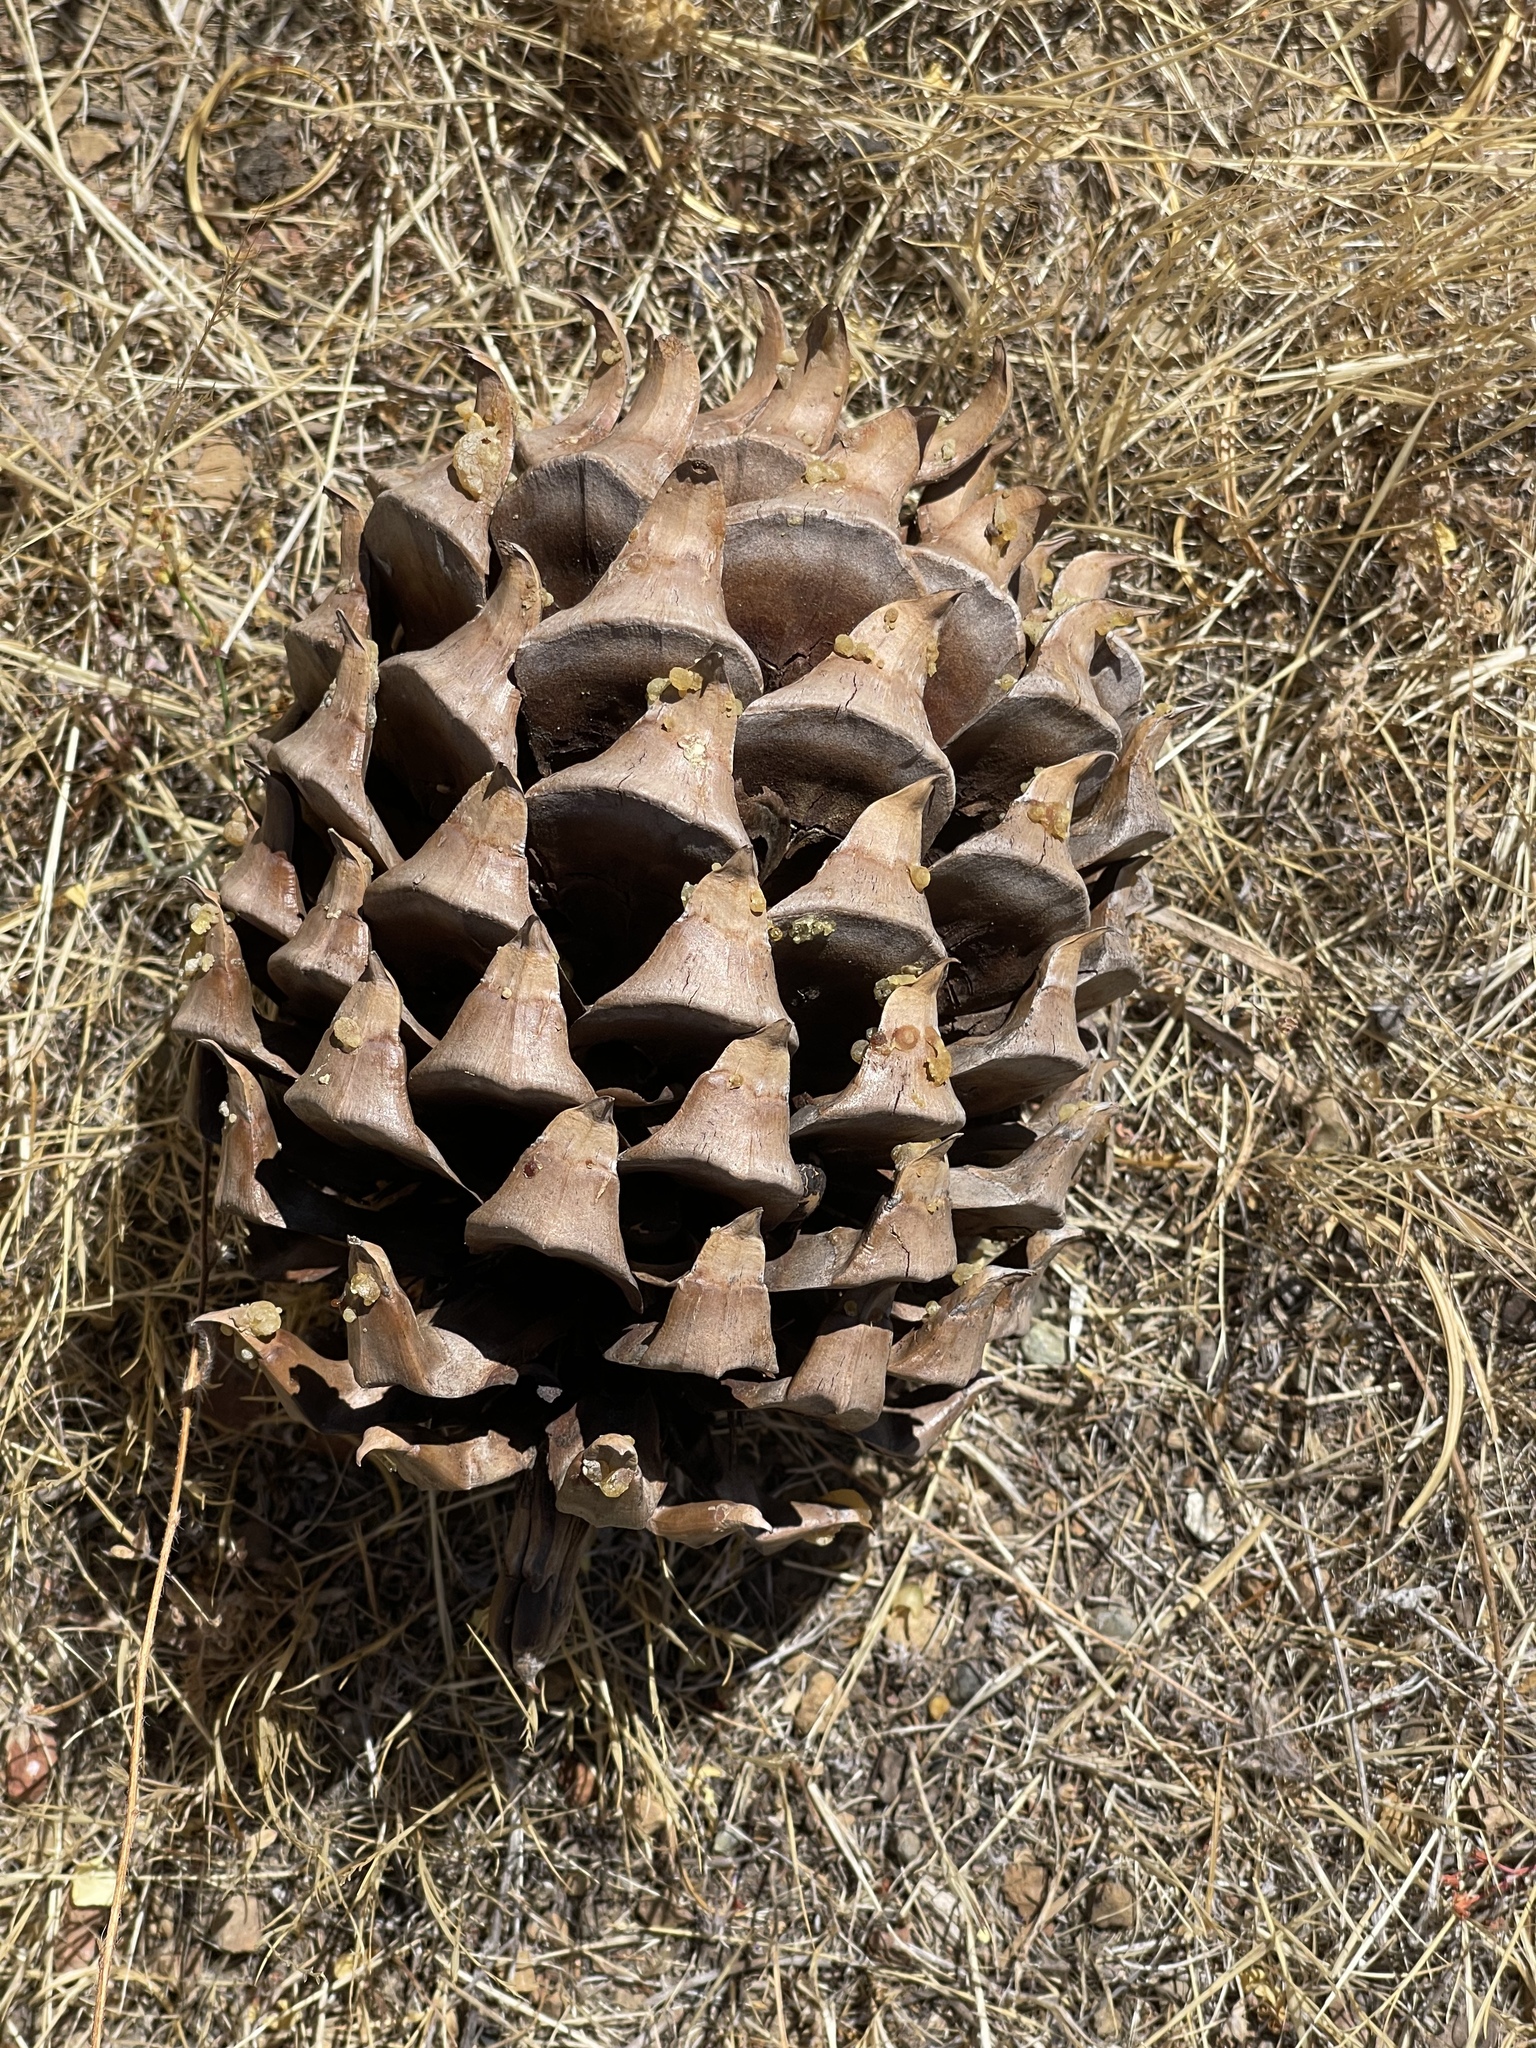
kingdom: Plantae
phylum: Tracheophyta
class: Pinopsida
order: Pinales
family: Pinaceae
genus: Pinus
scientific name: Pinus sabiniana
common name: Bull pine
